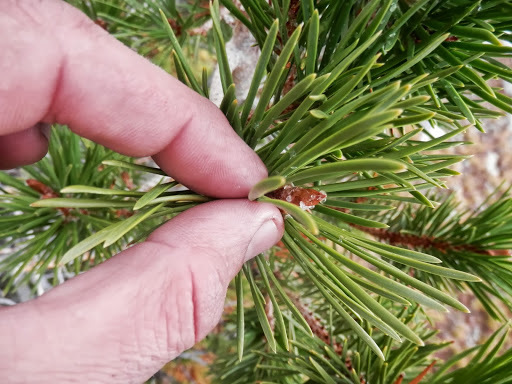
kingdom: Plantae
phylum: Tracheophyta
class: Pinopsida
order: Pinales
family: Pinaceae
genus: Pinus
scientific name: Pinus contorta
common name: Lodgepole pine
